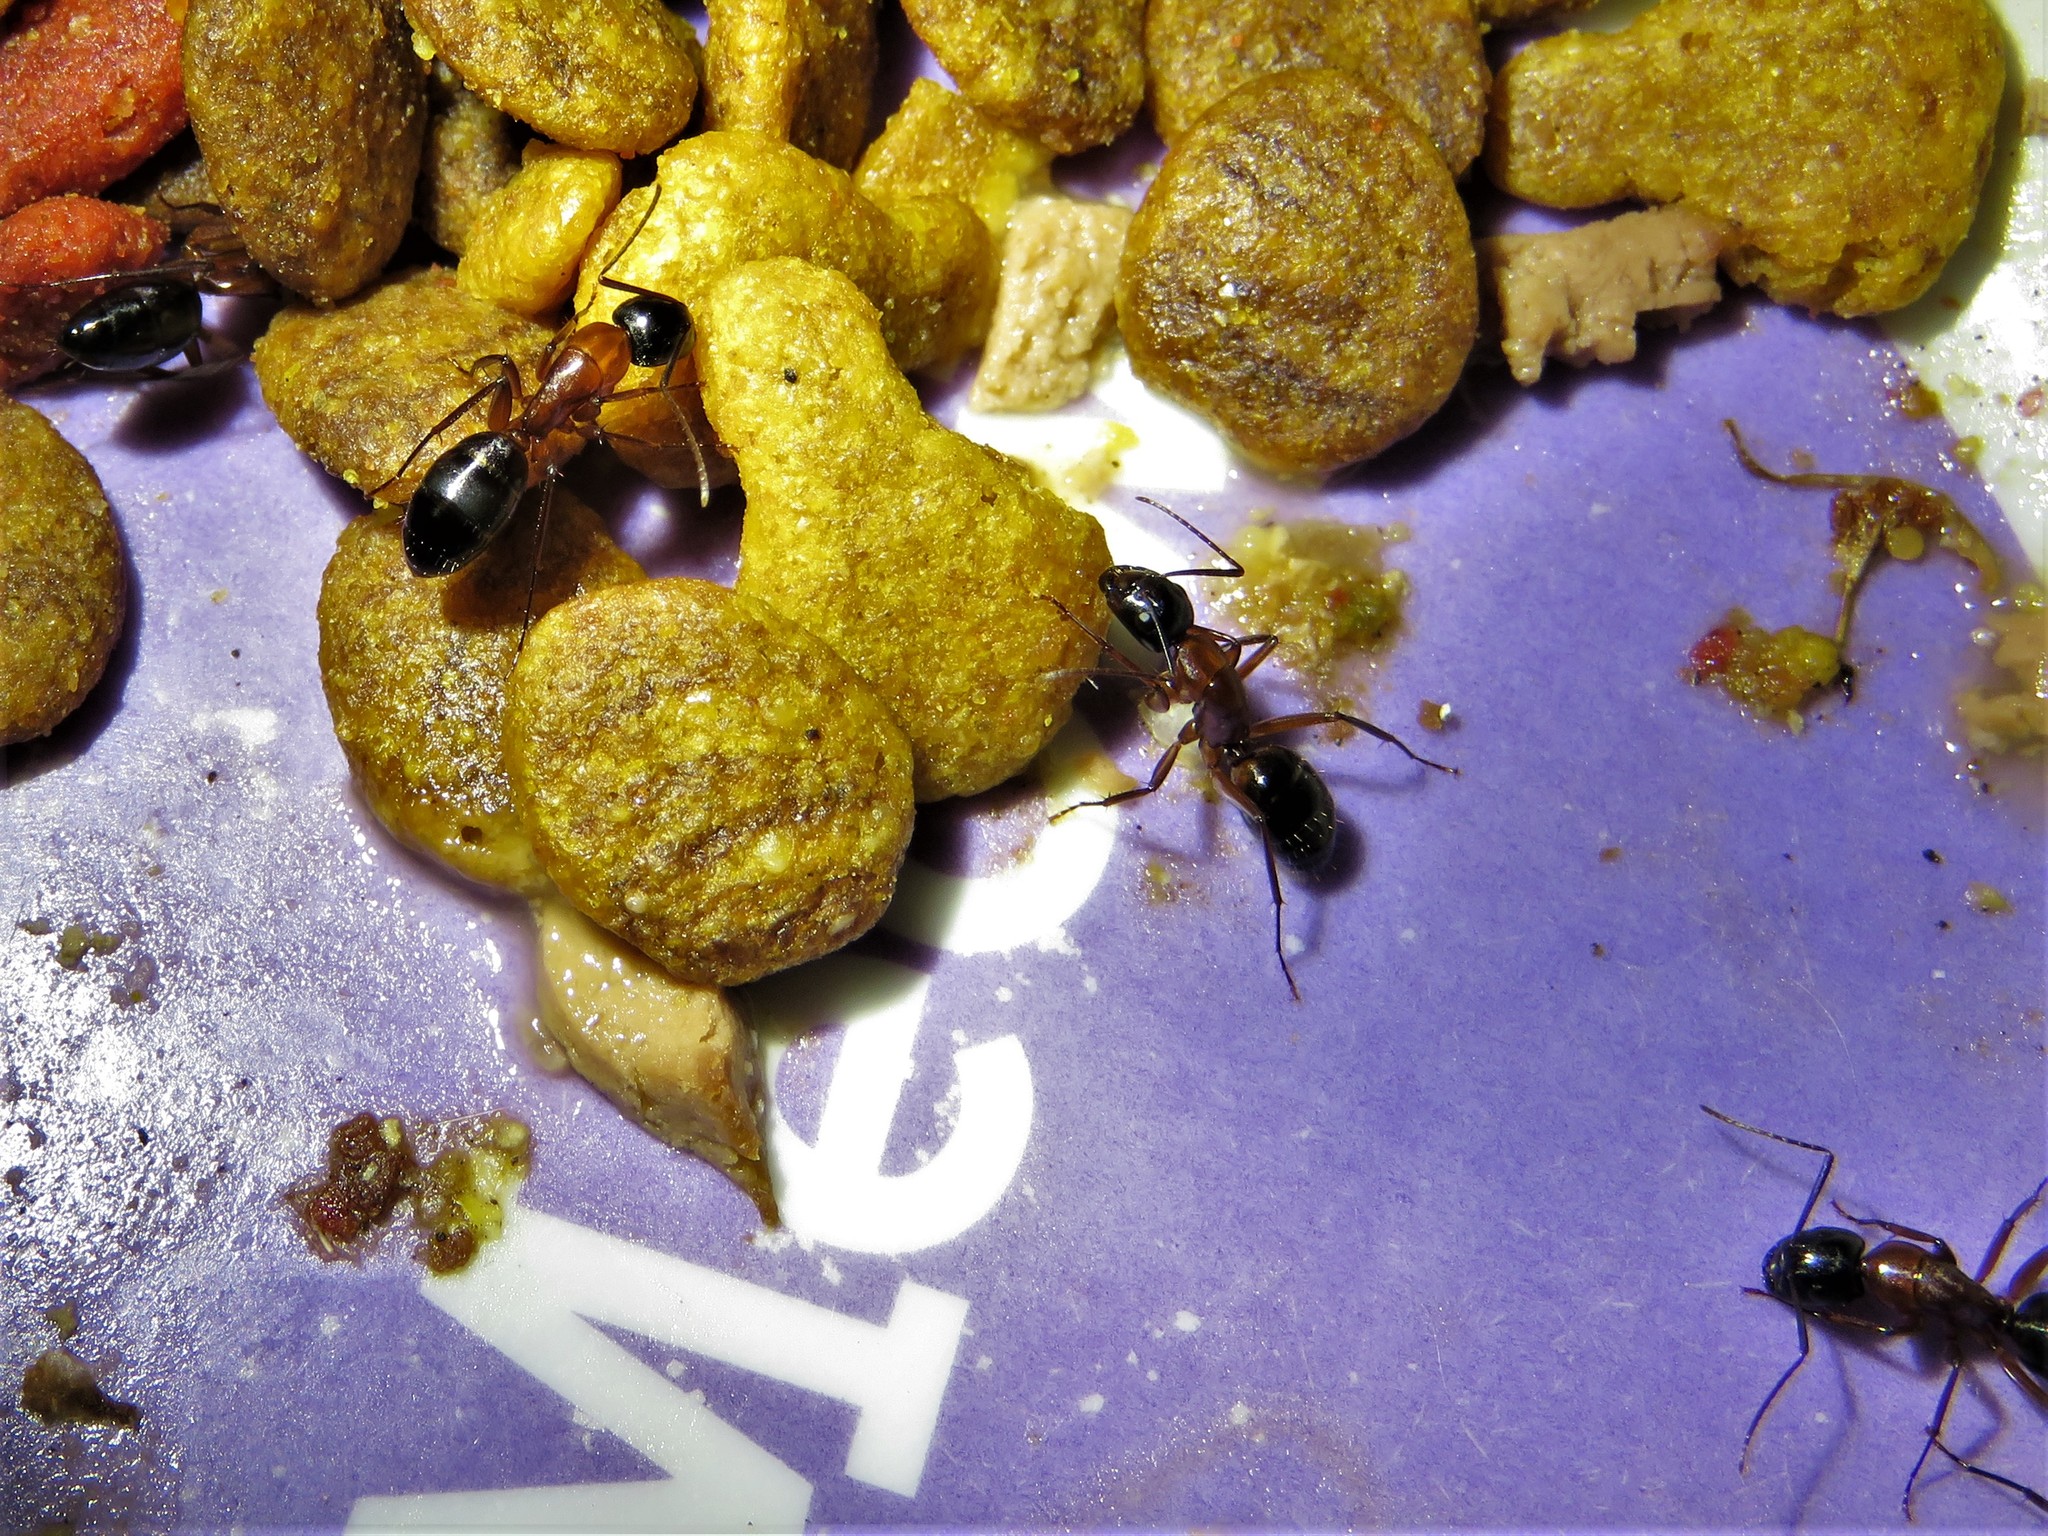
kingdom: Animalia
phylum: Arthropoda
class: Insecta
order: Hymenoptera
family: Formicidae
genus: Camponotus
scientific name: Camponotus texanus
